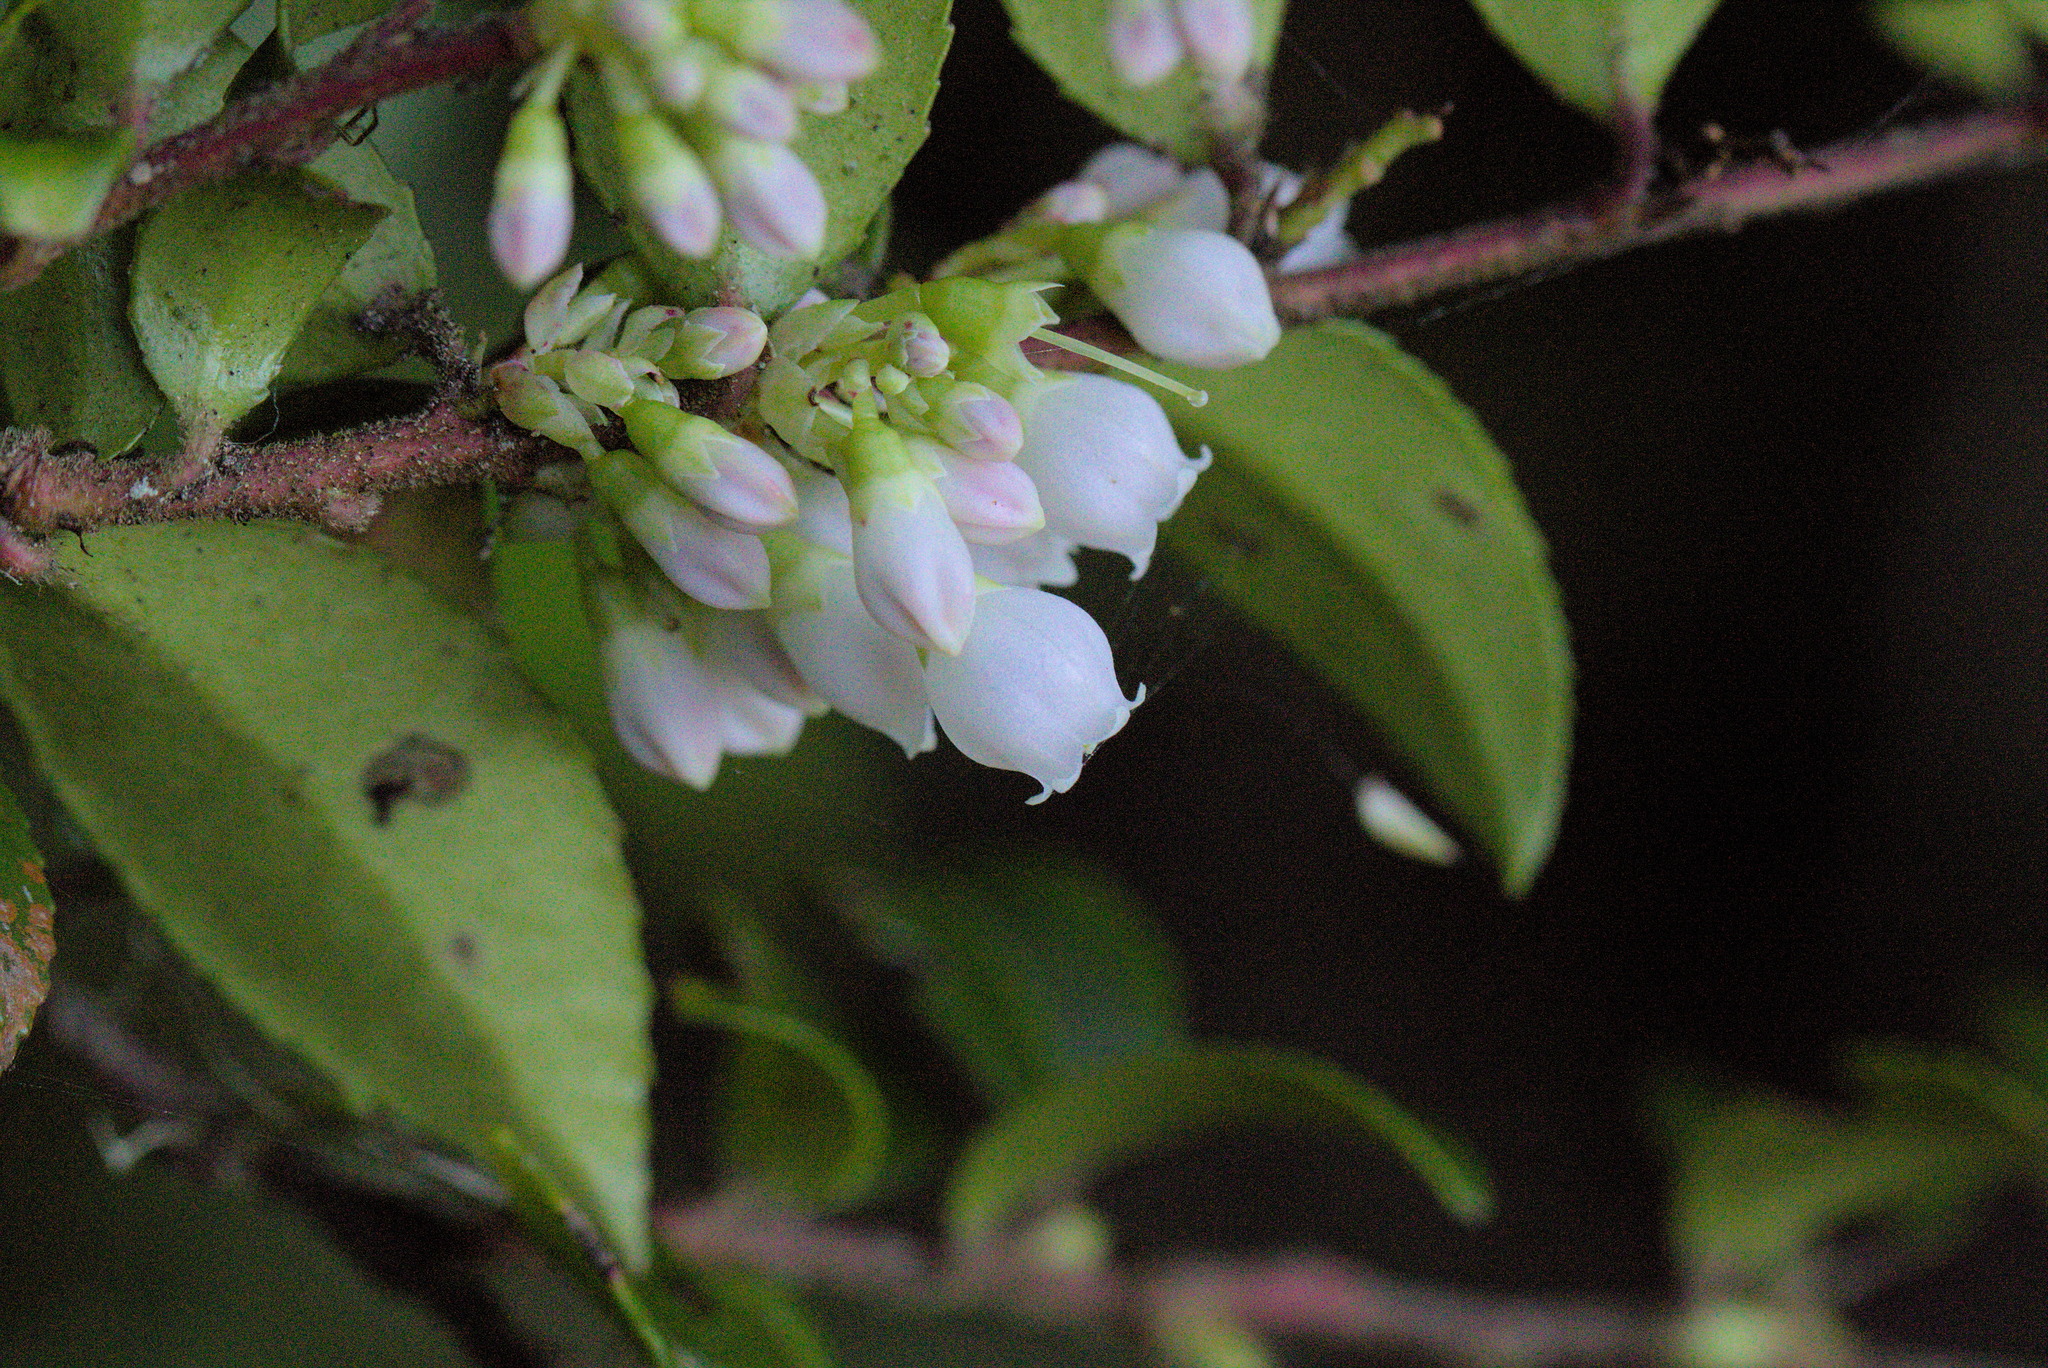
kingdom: Plantae
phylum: Tracheophyta
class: Magnoliopsida
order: Ericales
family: Ericaceae
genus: Vaccinium
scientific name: Vaccinium ovatum
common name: California-huckleberry
